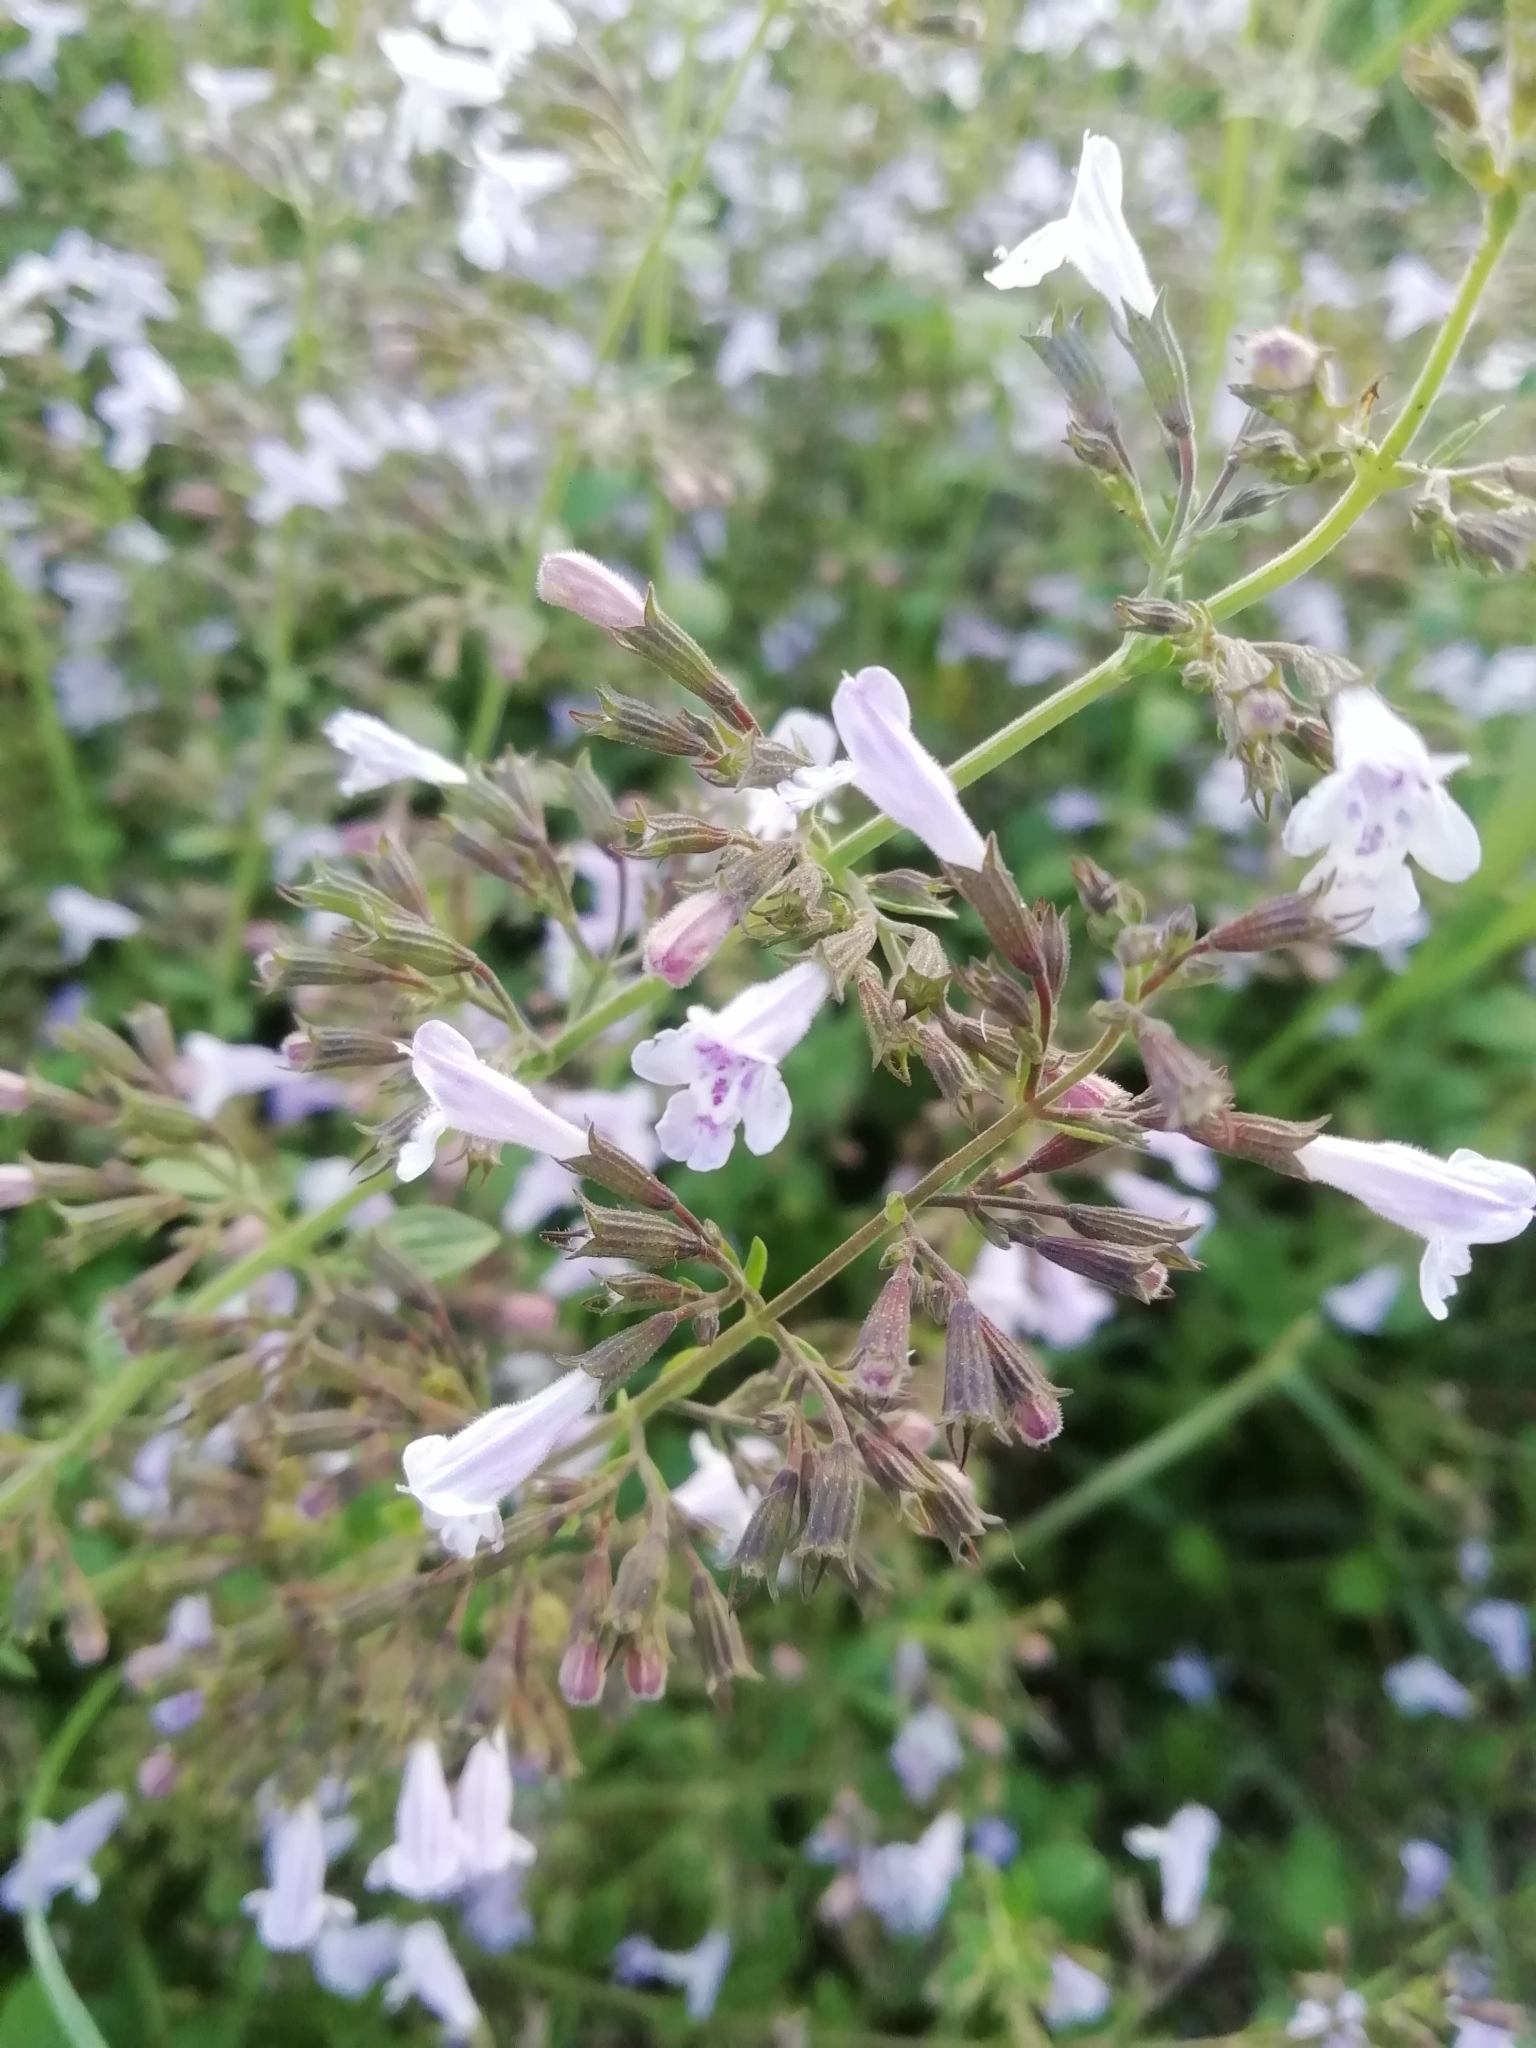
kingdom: Plantae
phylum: Tracheophyta
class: Magnoliopsida
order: Lamiales
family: Lamiaceae
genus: Clinopodium
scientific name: Clinopodium nepeta
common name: Lesser calamint
